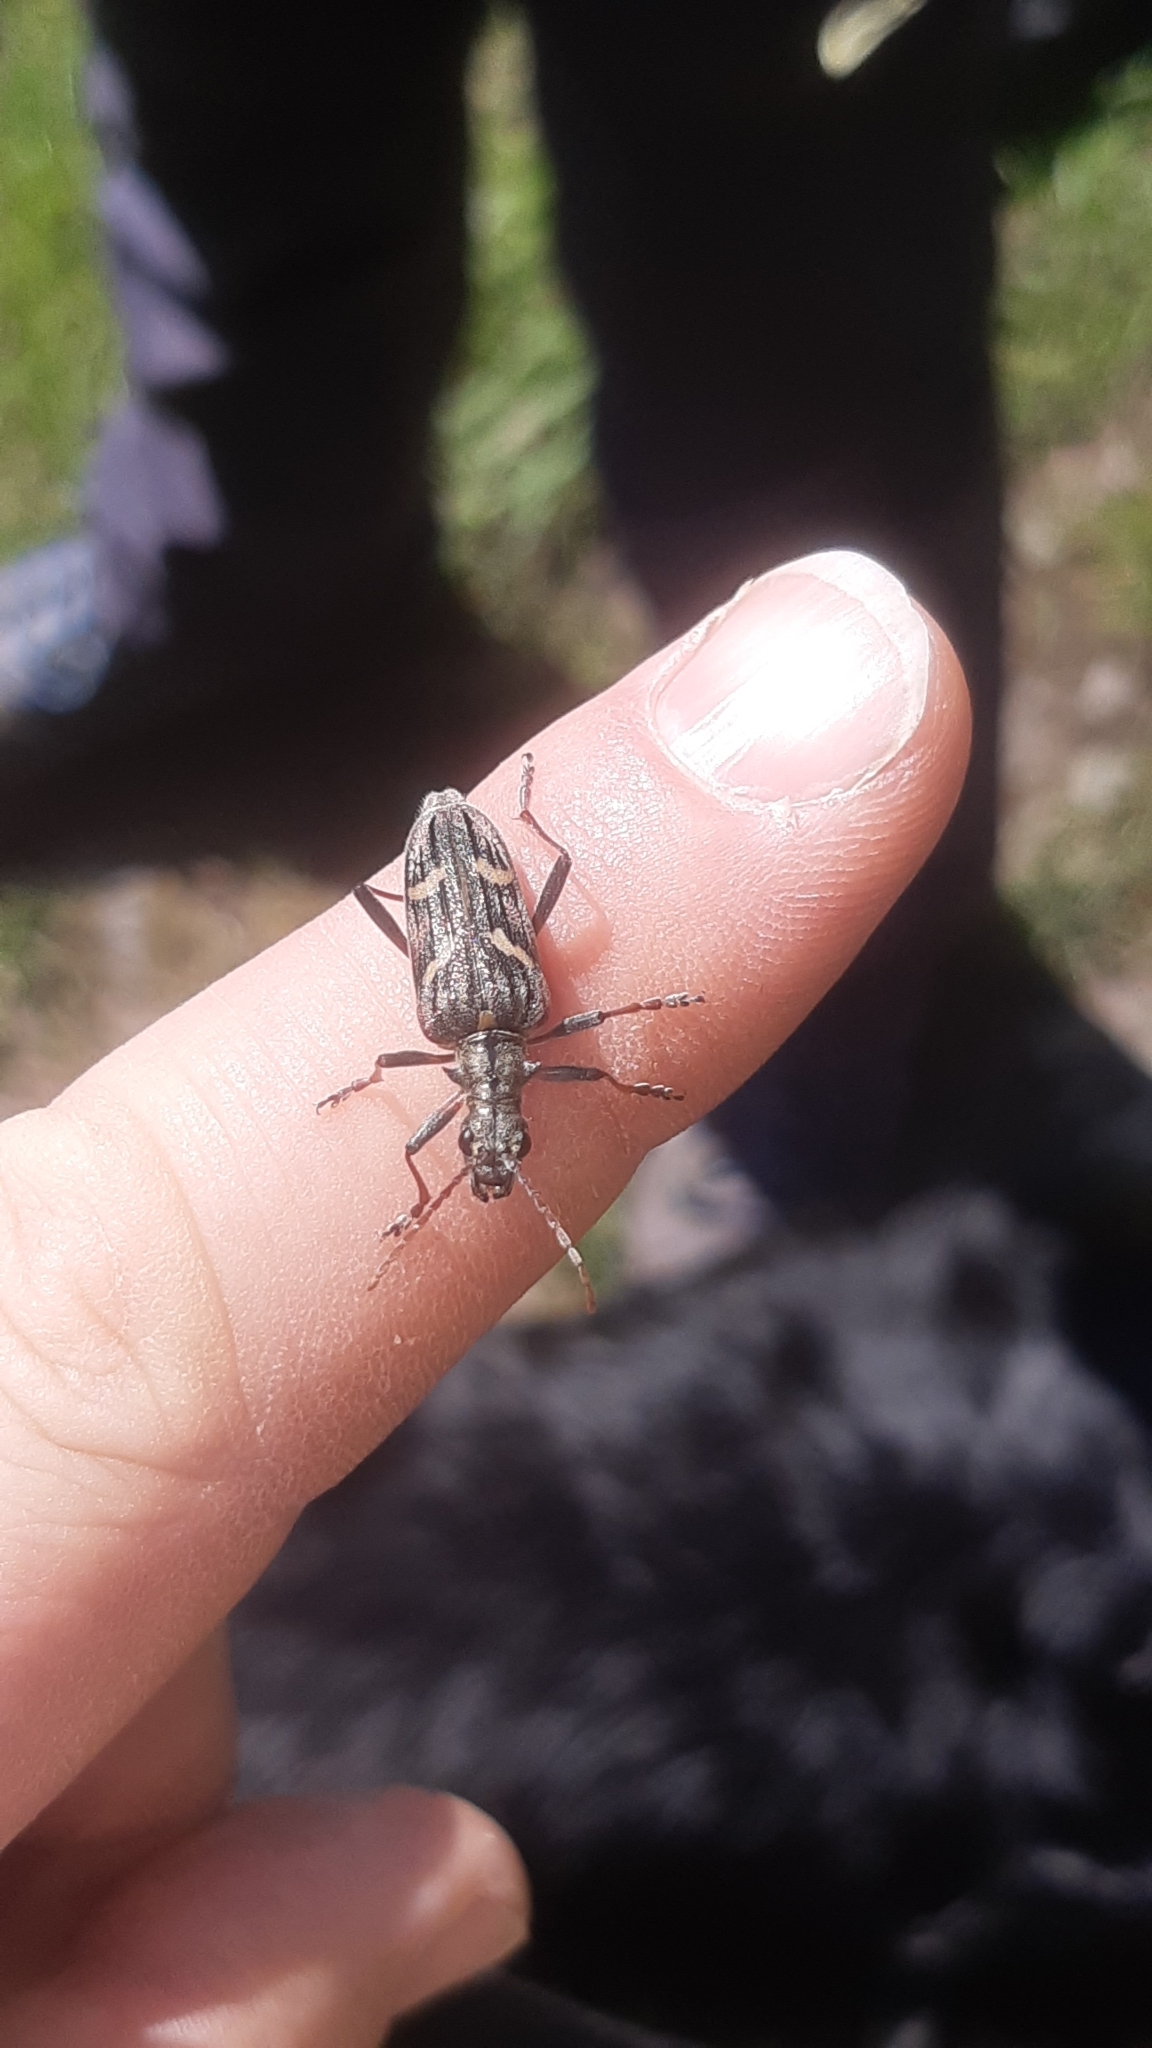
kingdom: Animalia
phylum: Arthropoda
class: Insecta
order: Coleoptera
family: Cerambycidae
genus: Rhagium
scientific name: Rhagium bifasciatum
